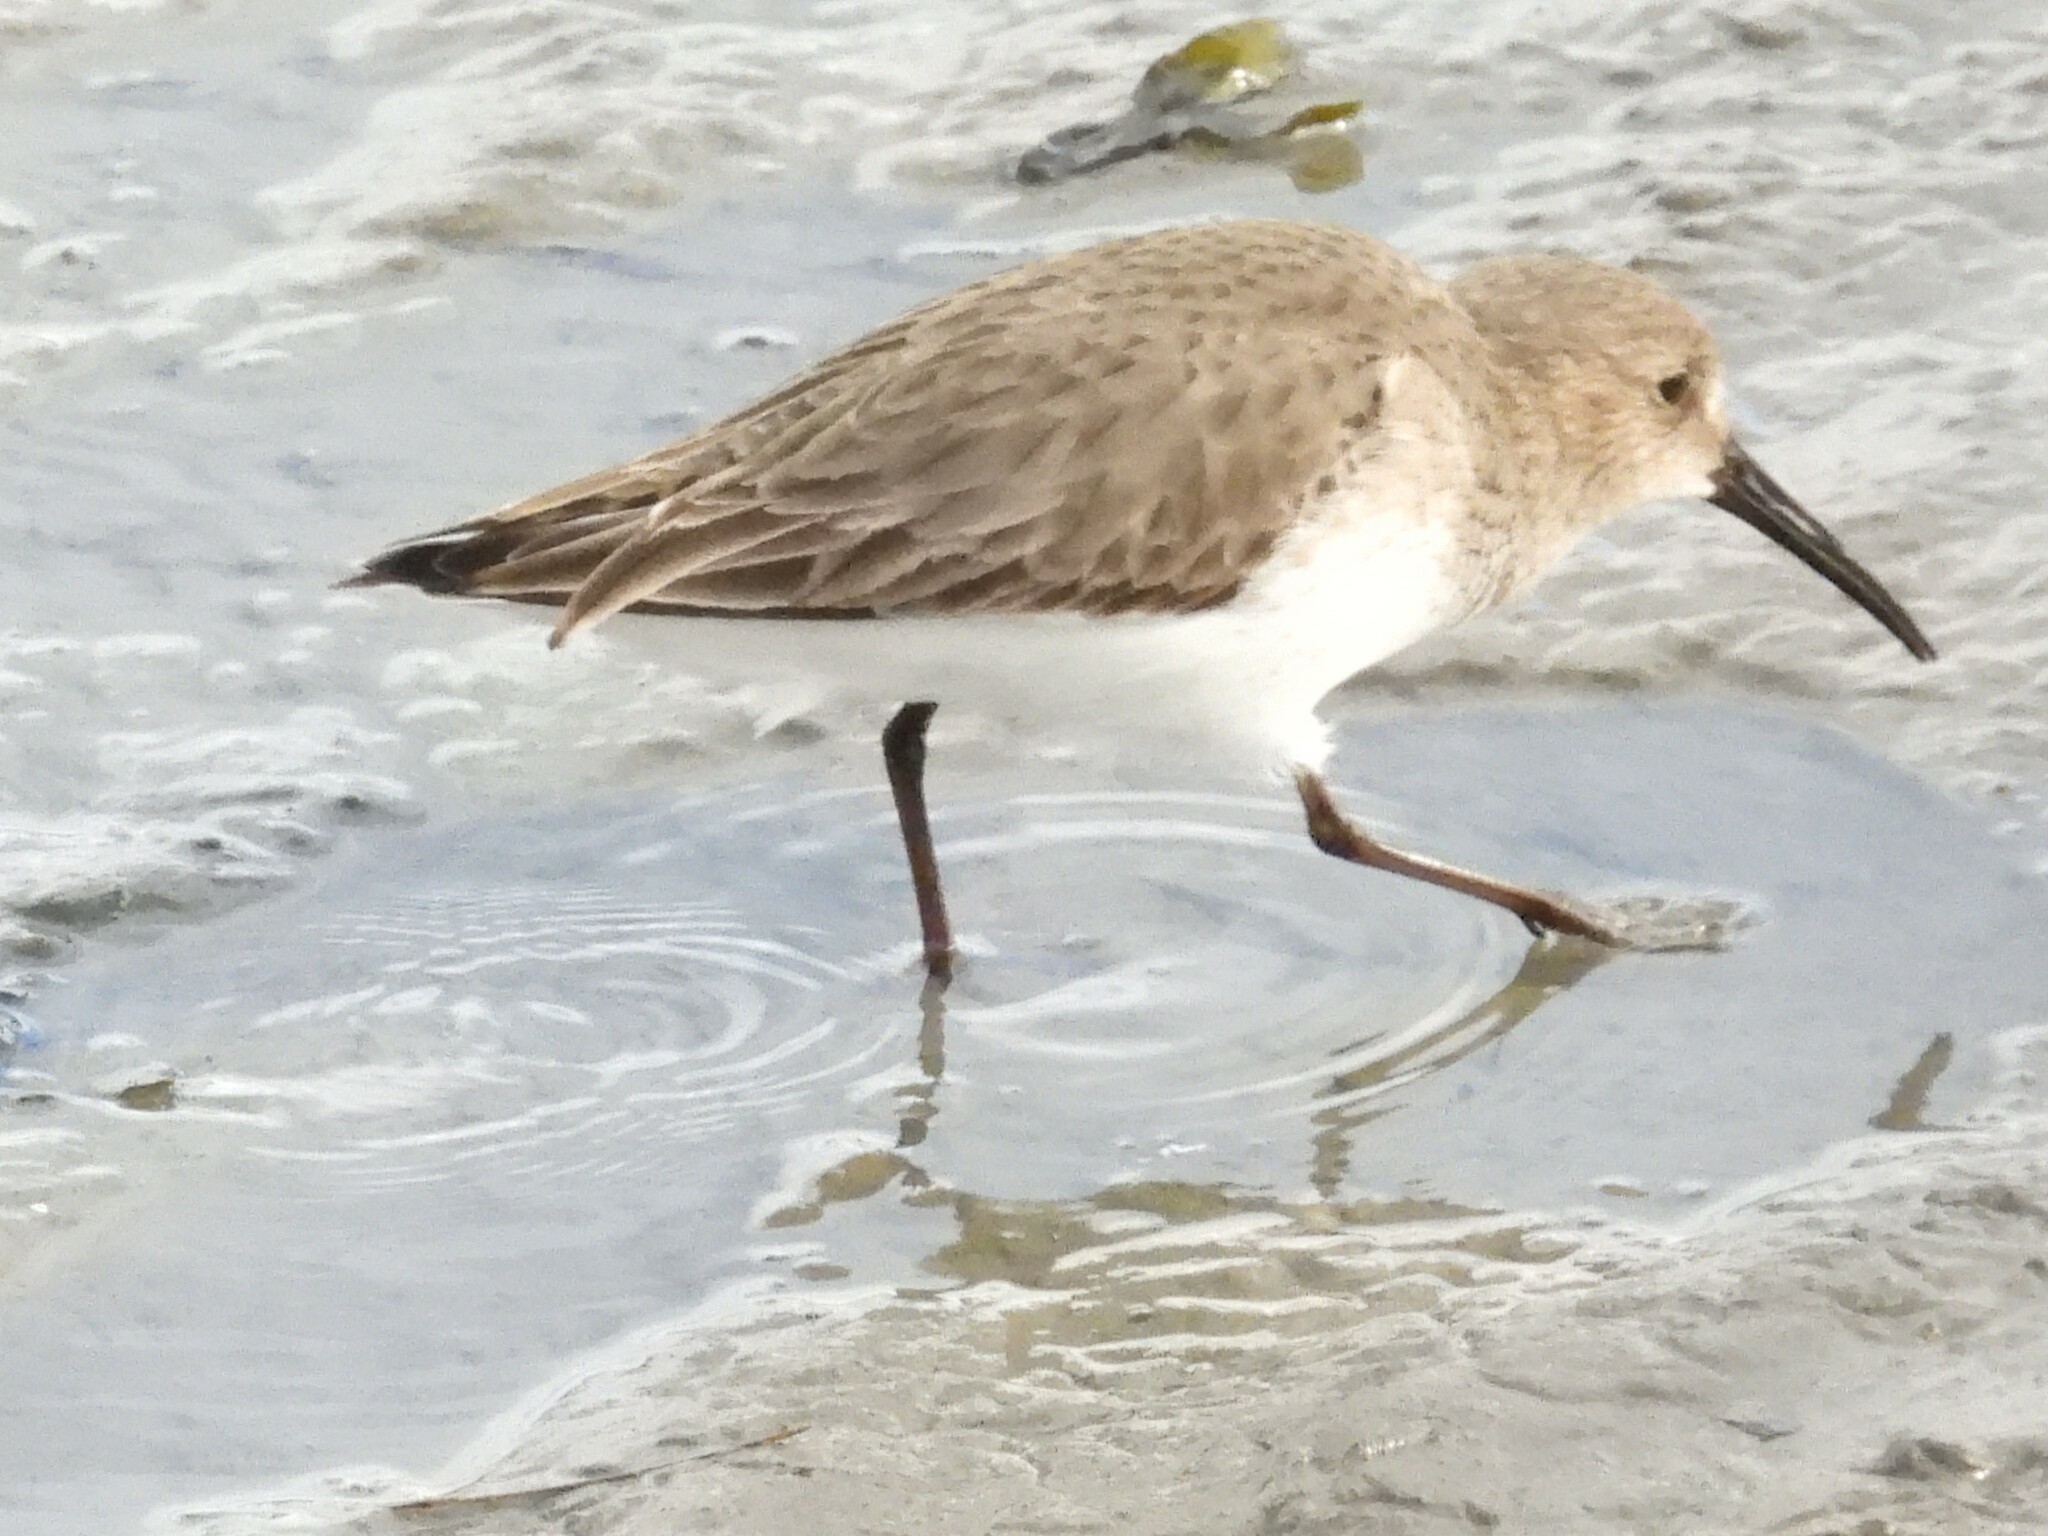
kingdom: Animalia
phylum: Chordata
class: Aves
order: Charadriiformes
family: Scolopacidae
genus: Calidris
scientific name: Calidris alpina
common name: Dunlin
